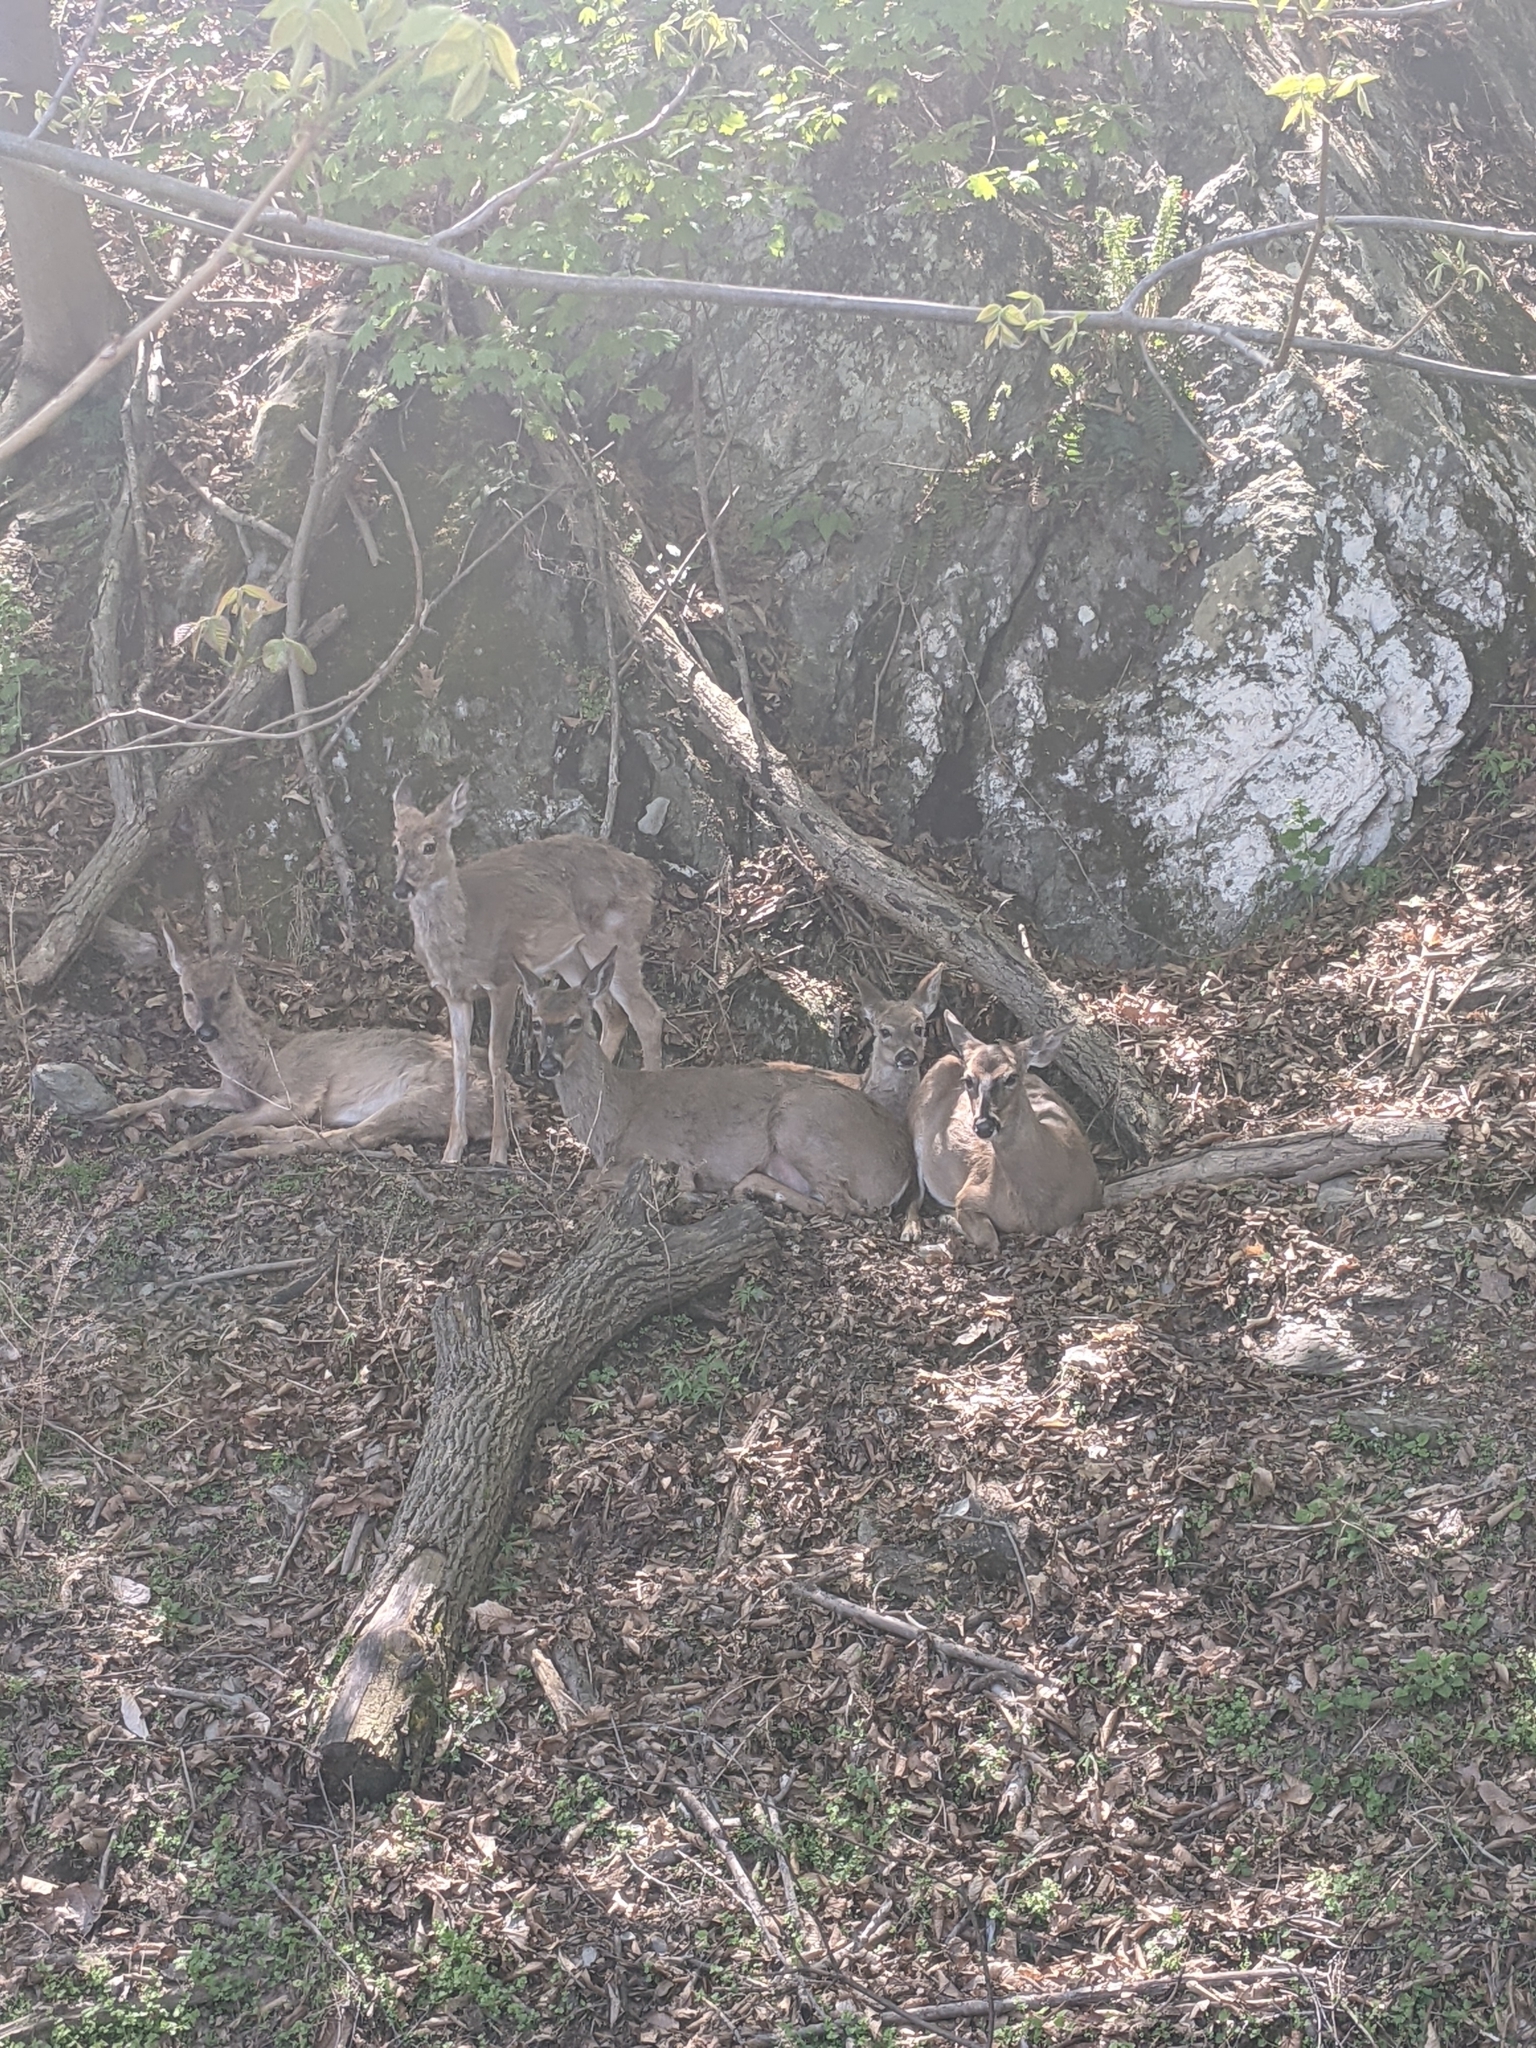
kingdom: Animalia
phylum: Chordata
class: Mammalia
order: Artiodactyla
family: Cervidae
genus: Odocoileus
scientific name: Odocoileus virginianus
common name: White-tailed deer
